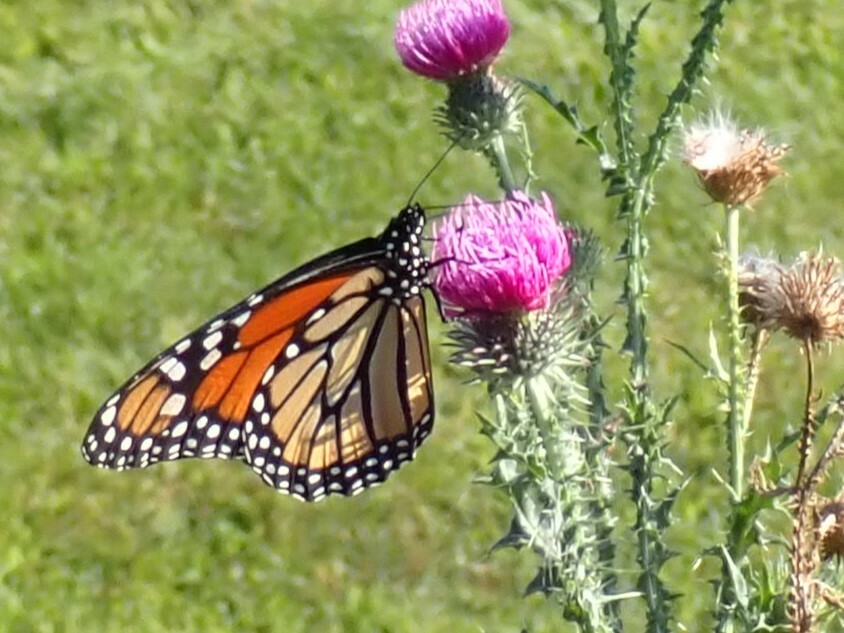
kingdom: Animalia
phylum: Arthropoda
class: Insecta
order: Lepidoptera
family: Nymphalidae
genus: Danaus
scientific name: Danaus plexippus
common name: Monarch
